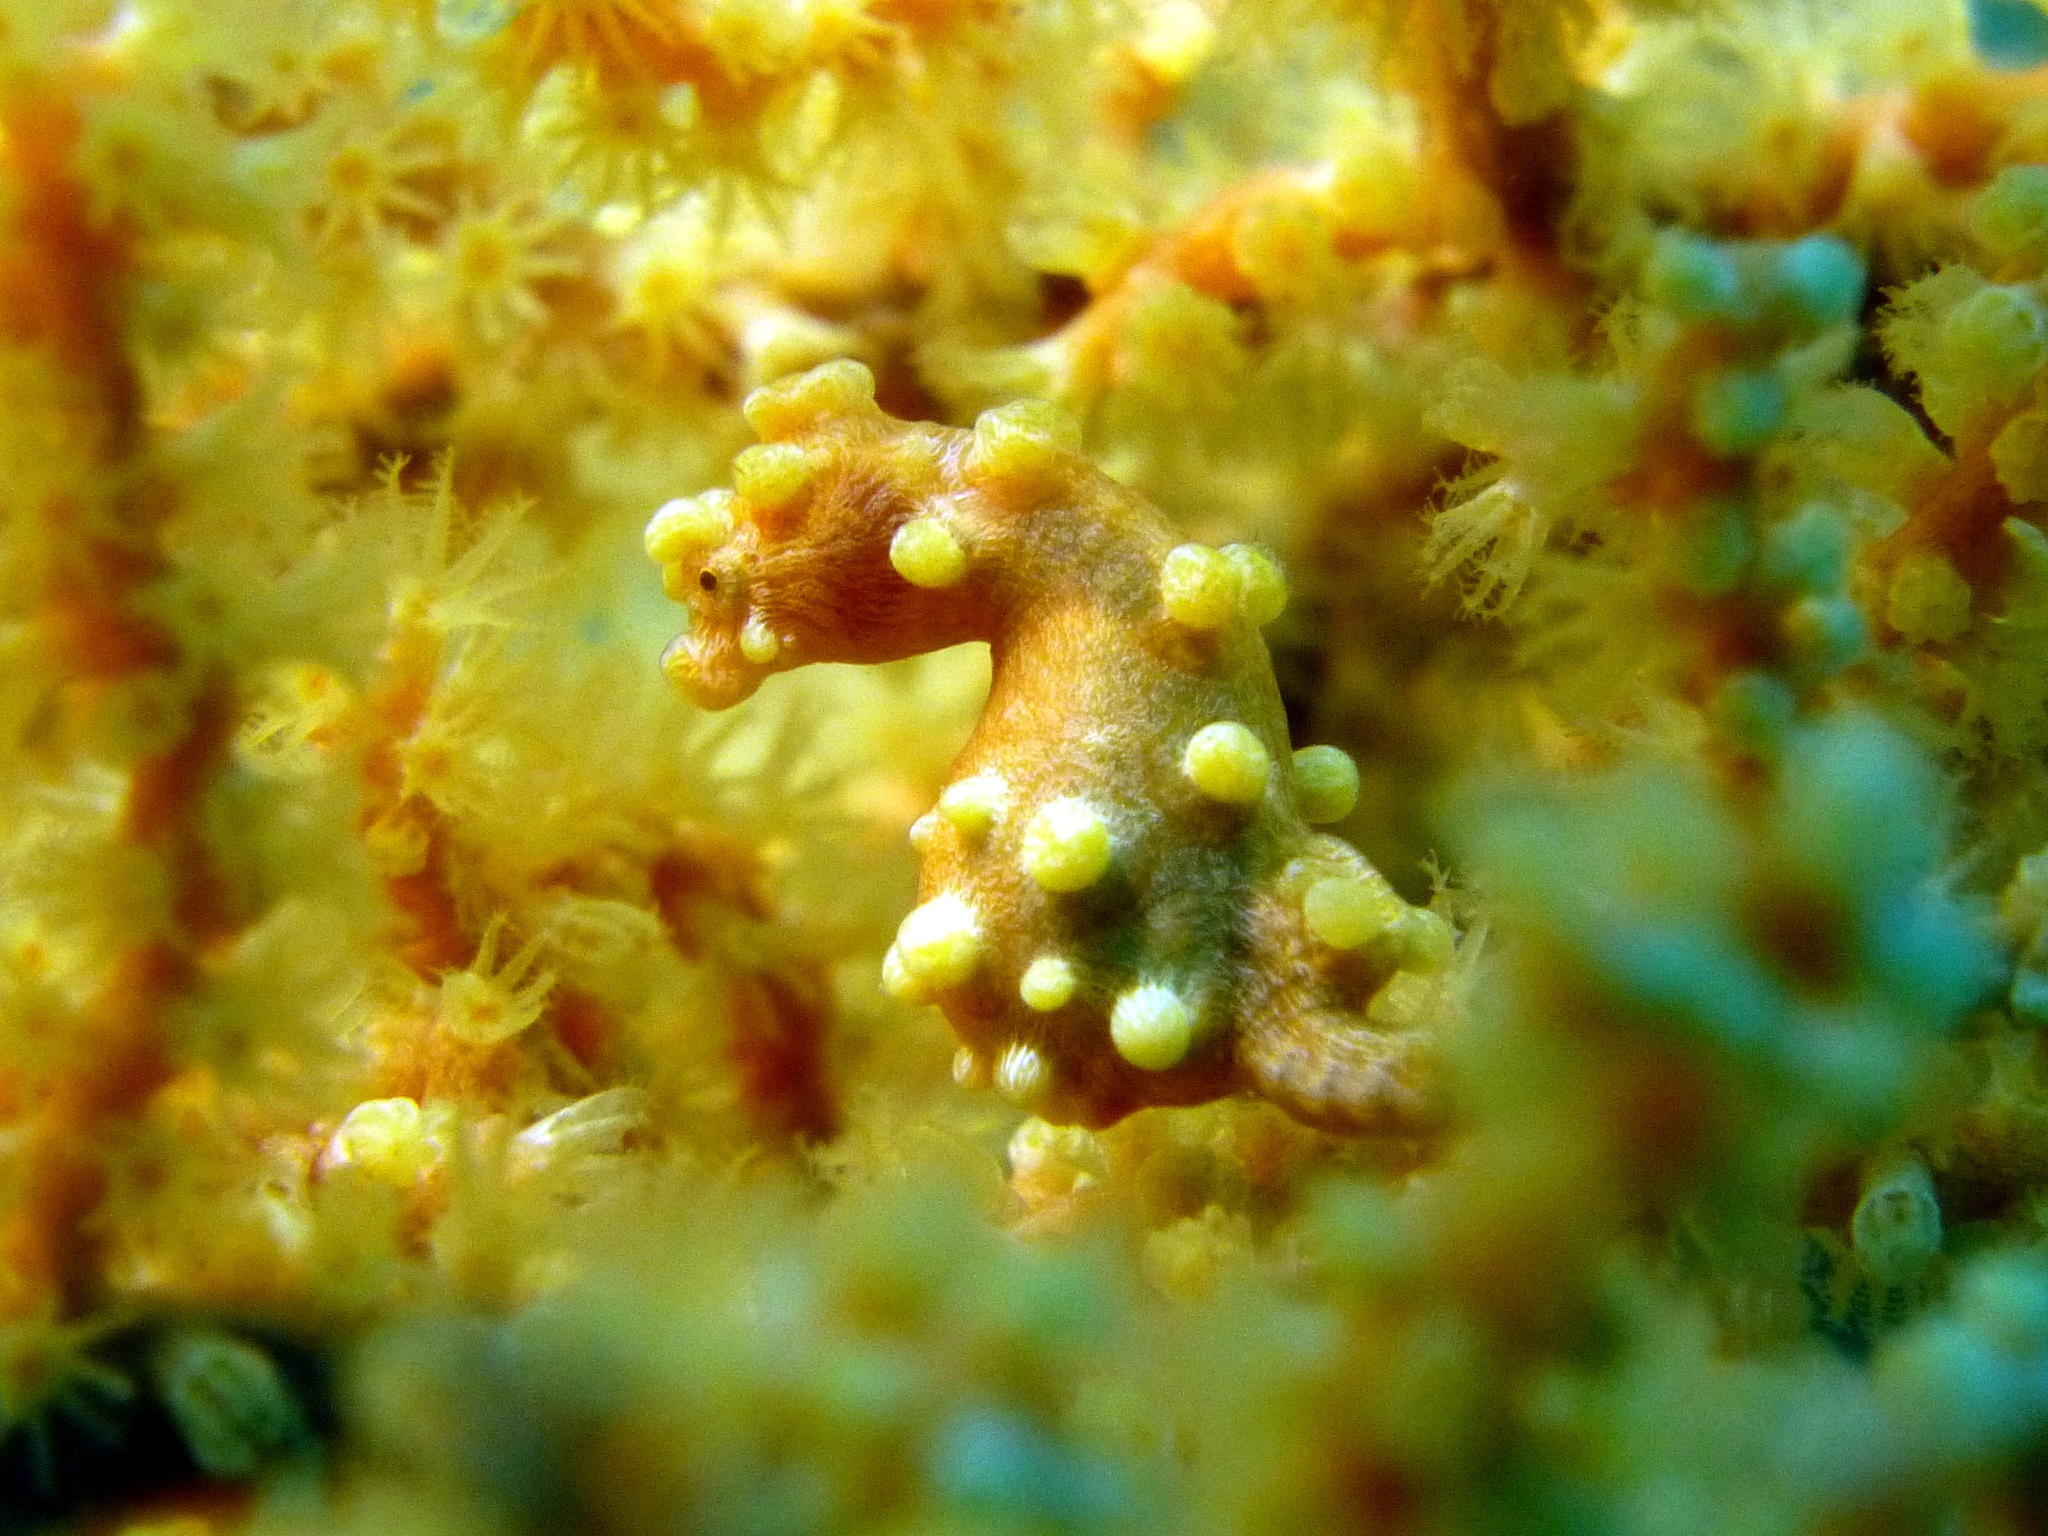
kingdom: Animalia
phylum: Chordata
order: Syngnathiformes
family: Syngnathidae
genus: Hippocampus
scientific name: Hippocampus bargibanti
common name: Bargibant's seahorse
